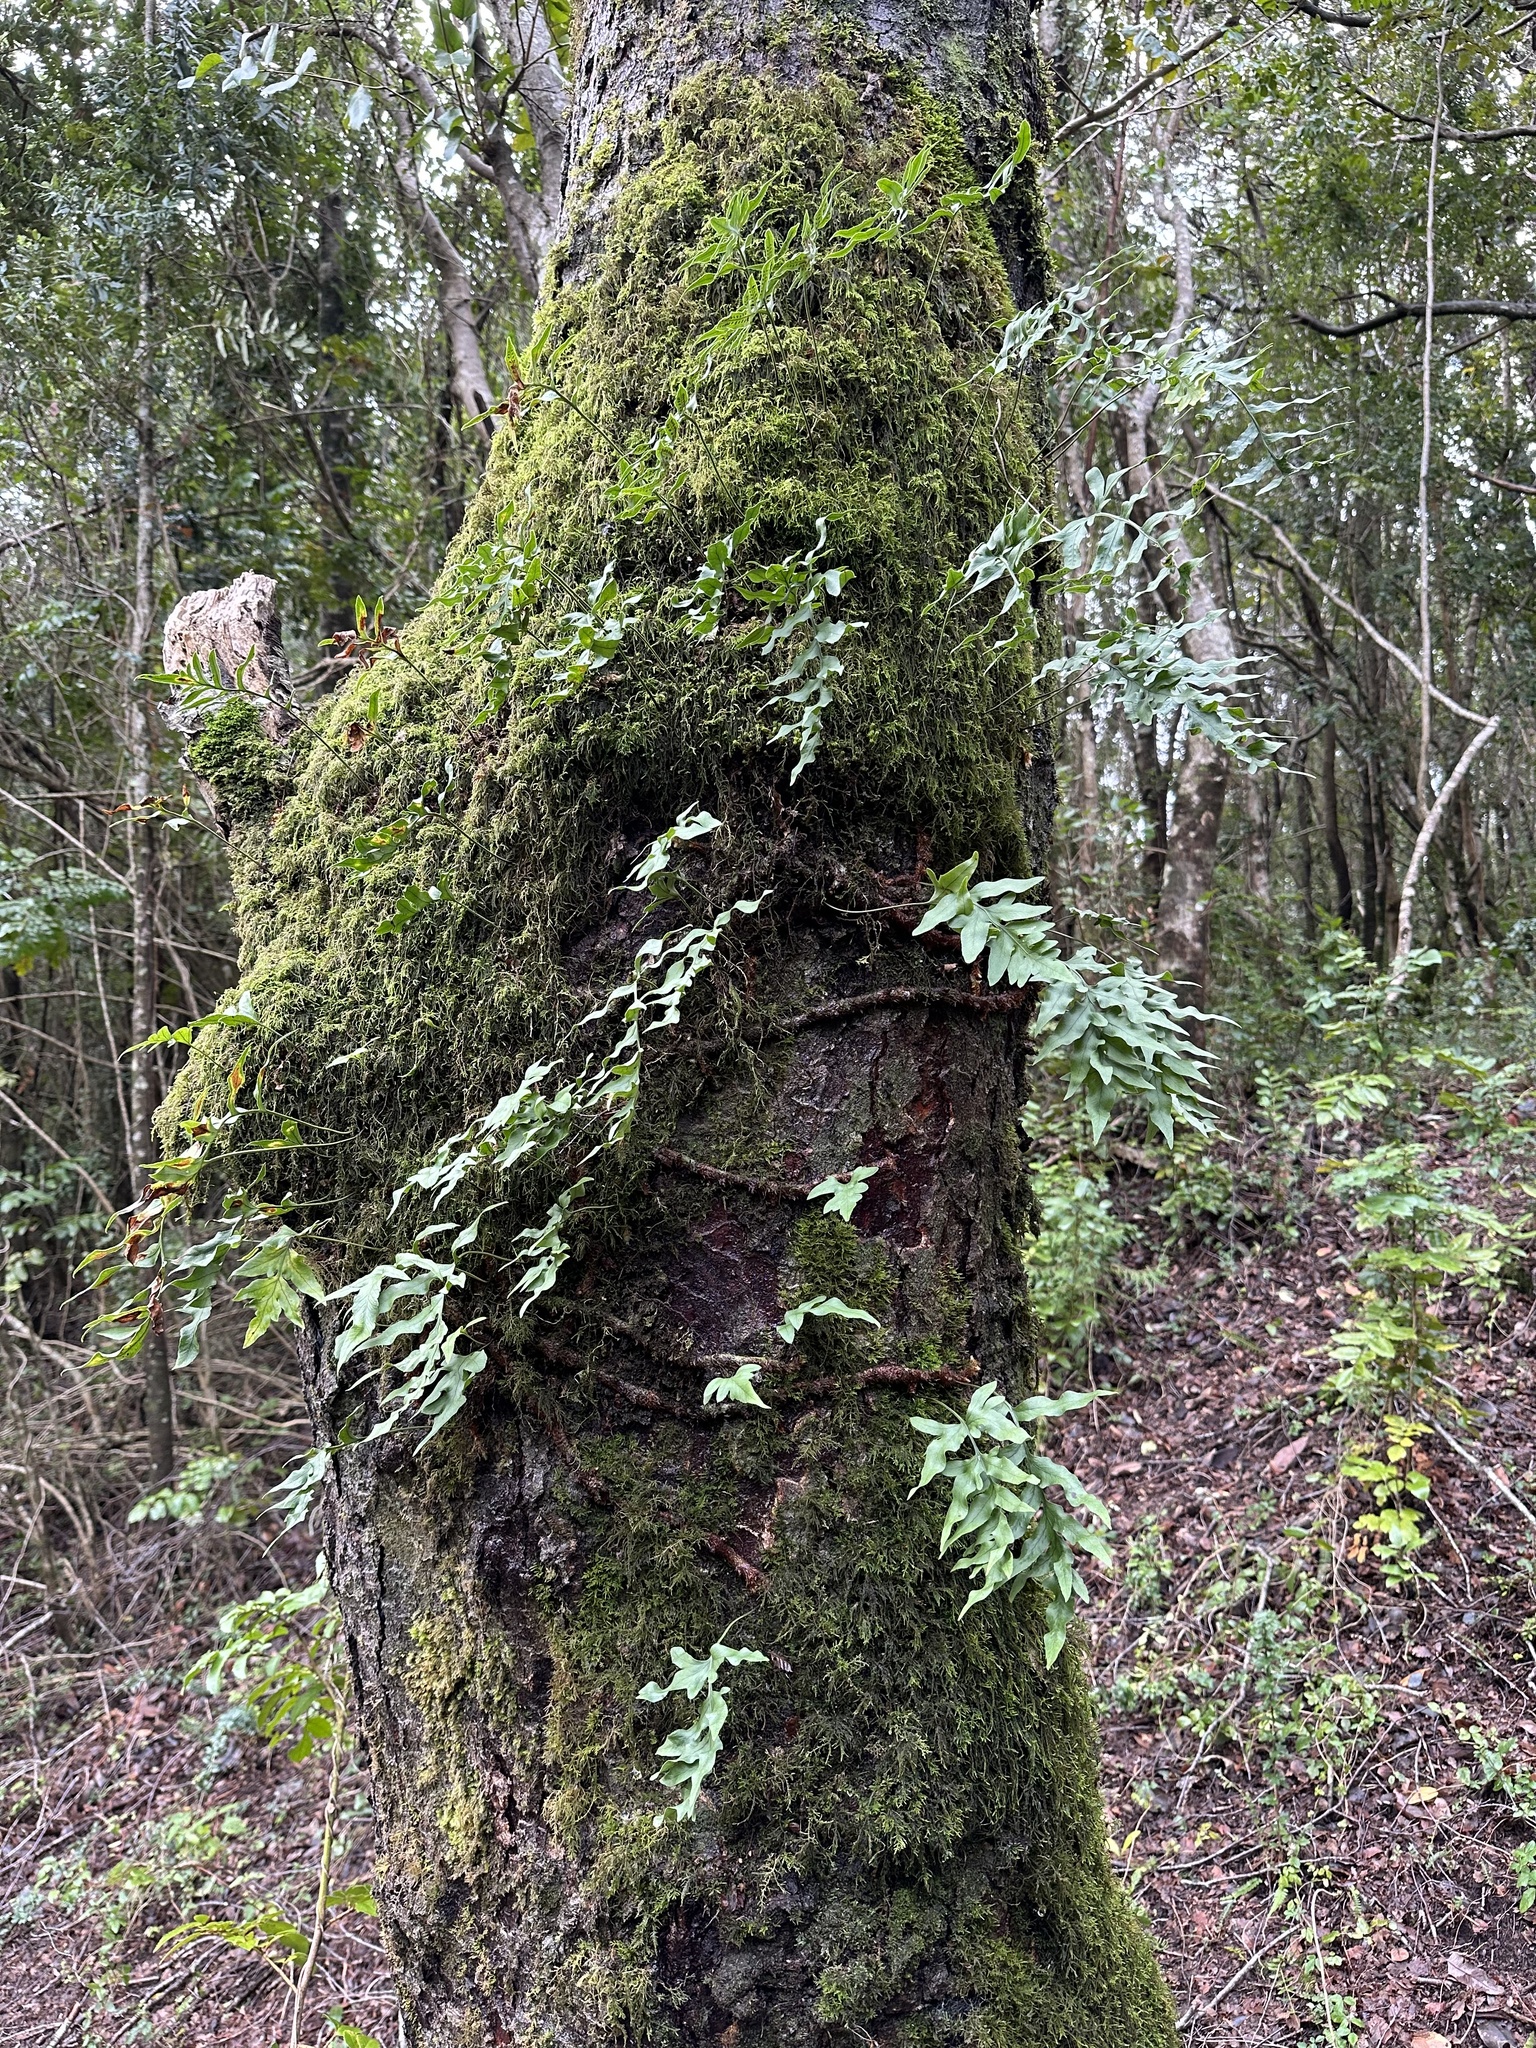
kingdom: Plantae
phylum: Tracheophyta
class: Polypodiopsida
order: Polypodiales
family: Polypodiaceae
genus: Synammia
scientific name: Synammia feuillei
